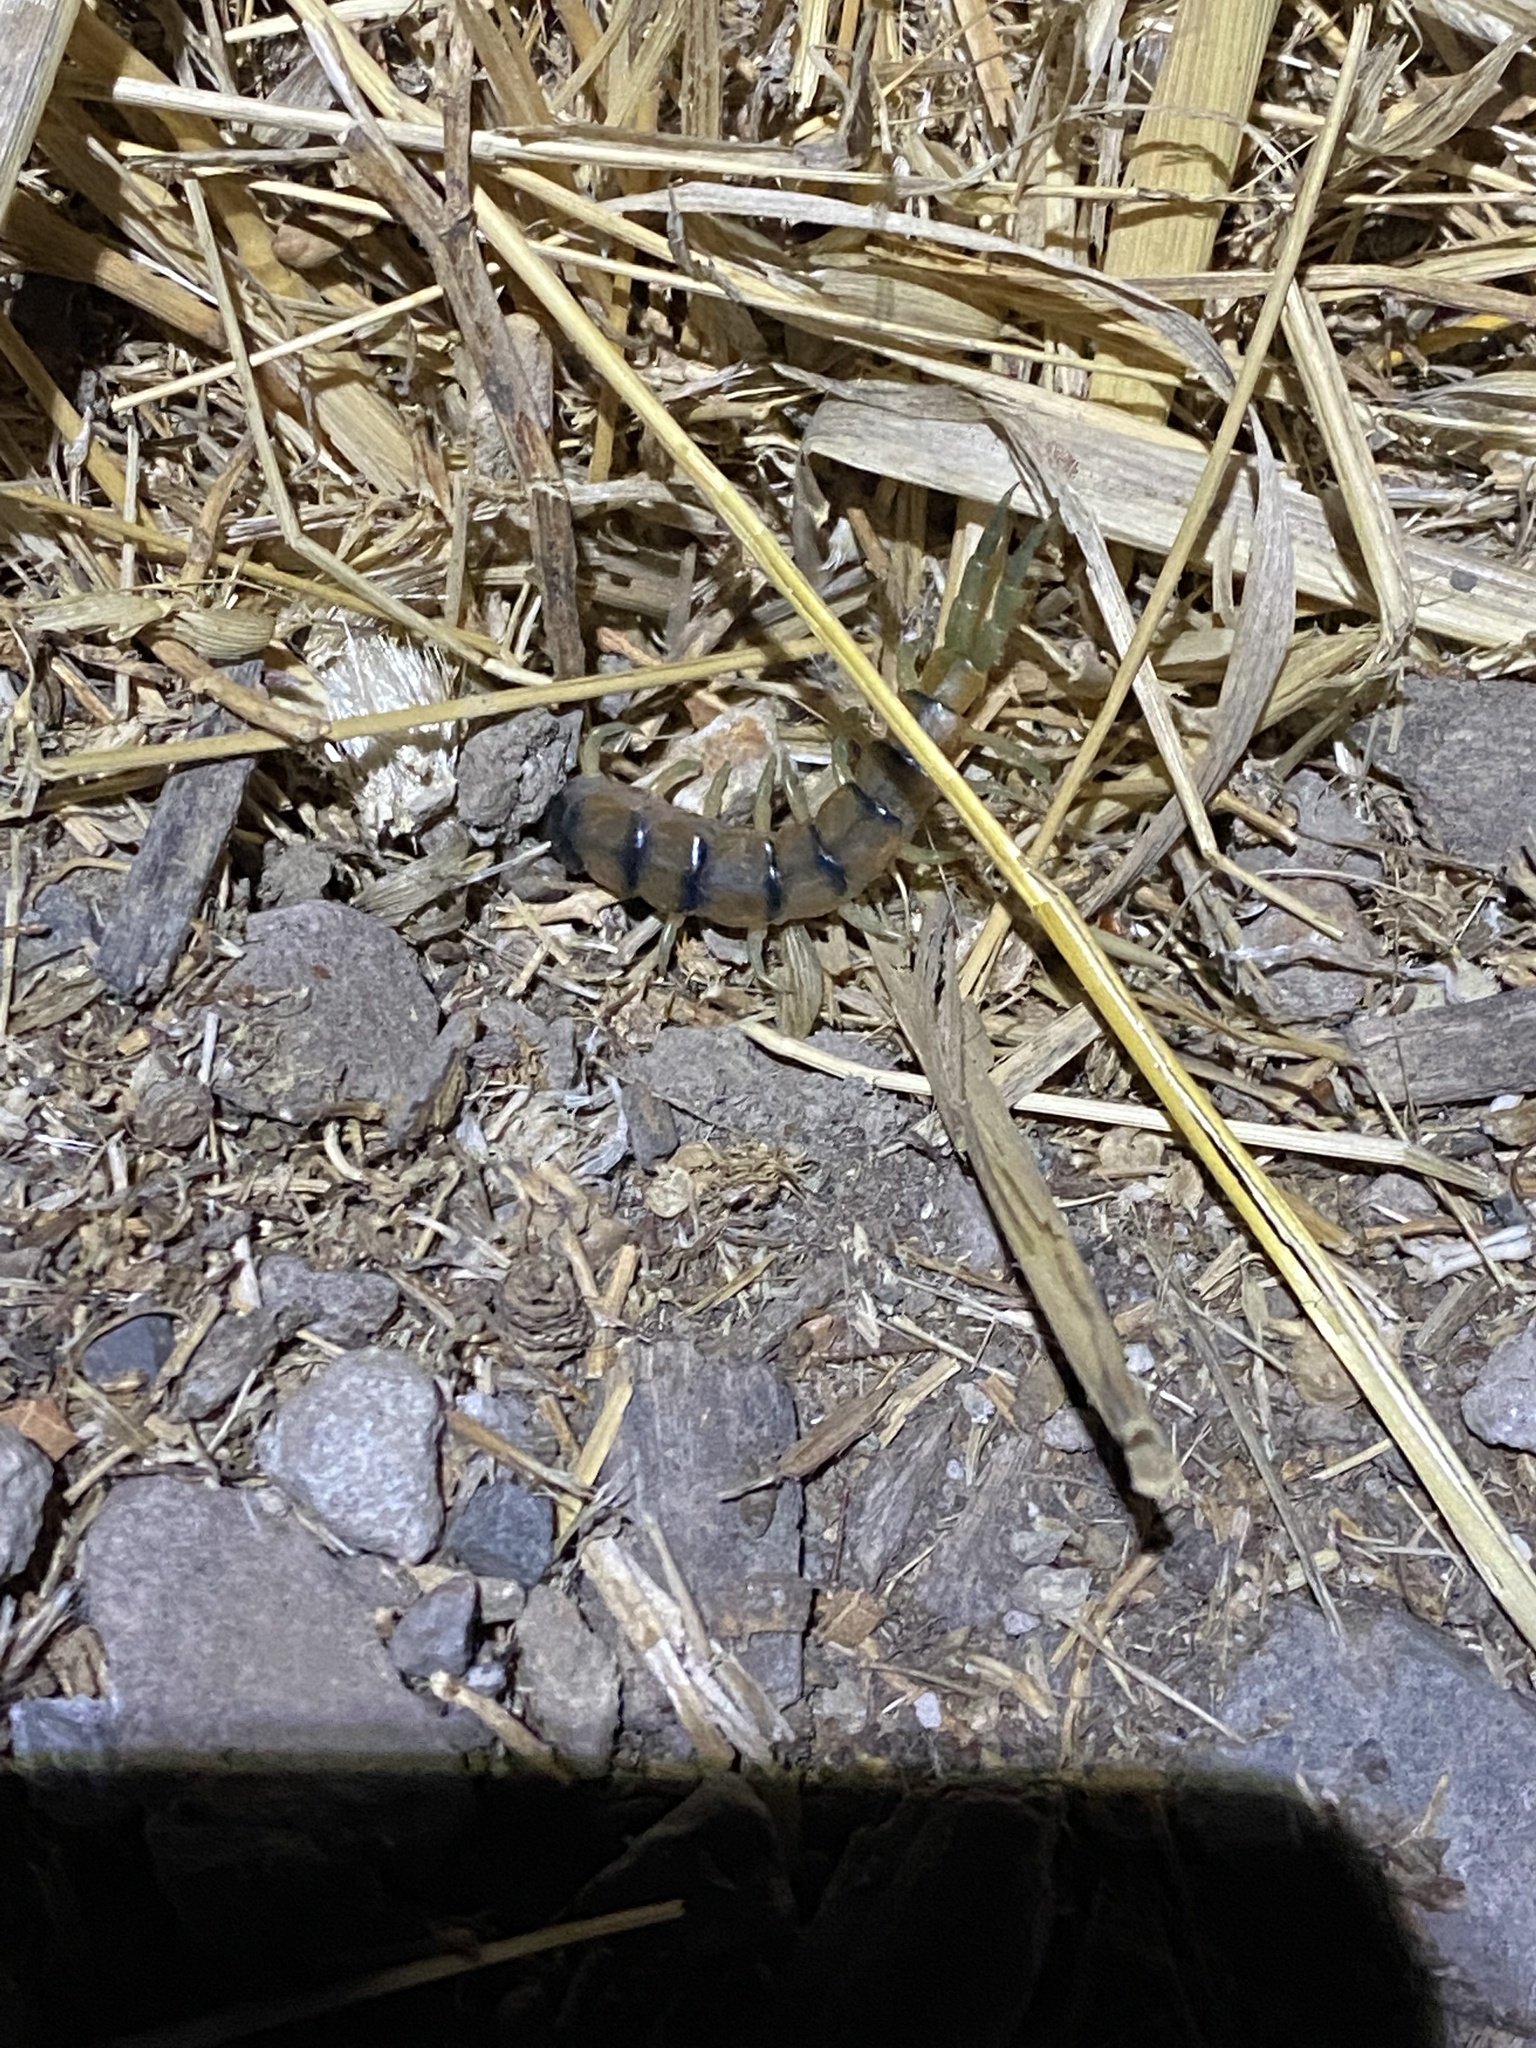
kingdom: Animalia
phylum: Arthropoda
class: Chilopoda
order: Scolopendromorpha
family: Scolopendridae
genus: Scolopendra
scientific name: Scolopendra polymorpha
